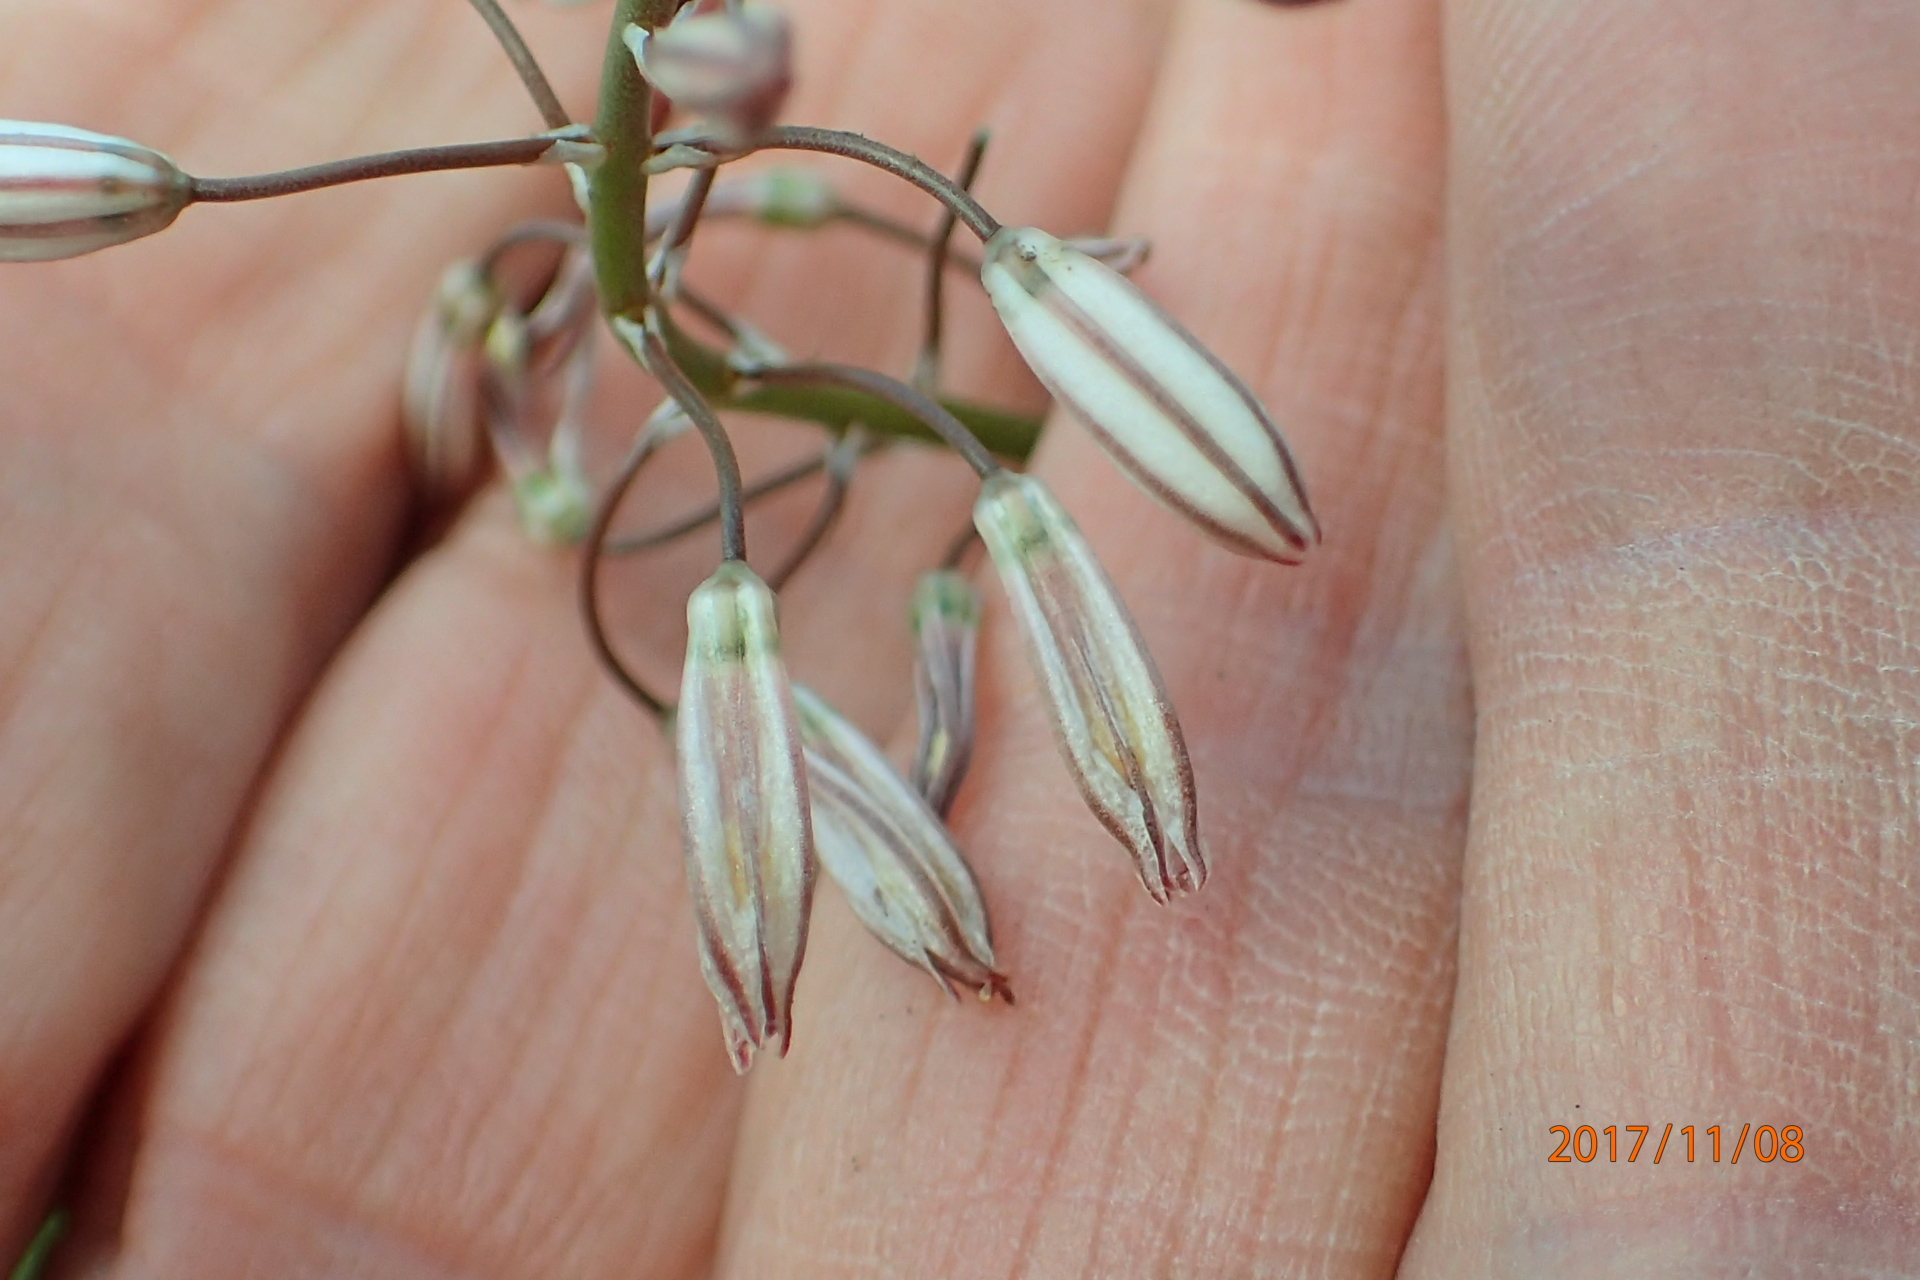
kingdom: Plantae
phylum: Tracheophyta
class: Liliopsida
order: Asparagales
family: Asphodelaceae
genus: Trachyandra
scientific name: Trachyandra asperata
